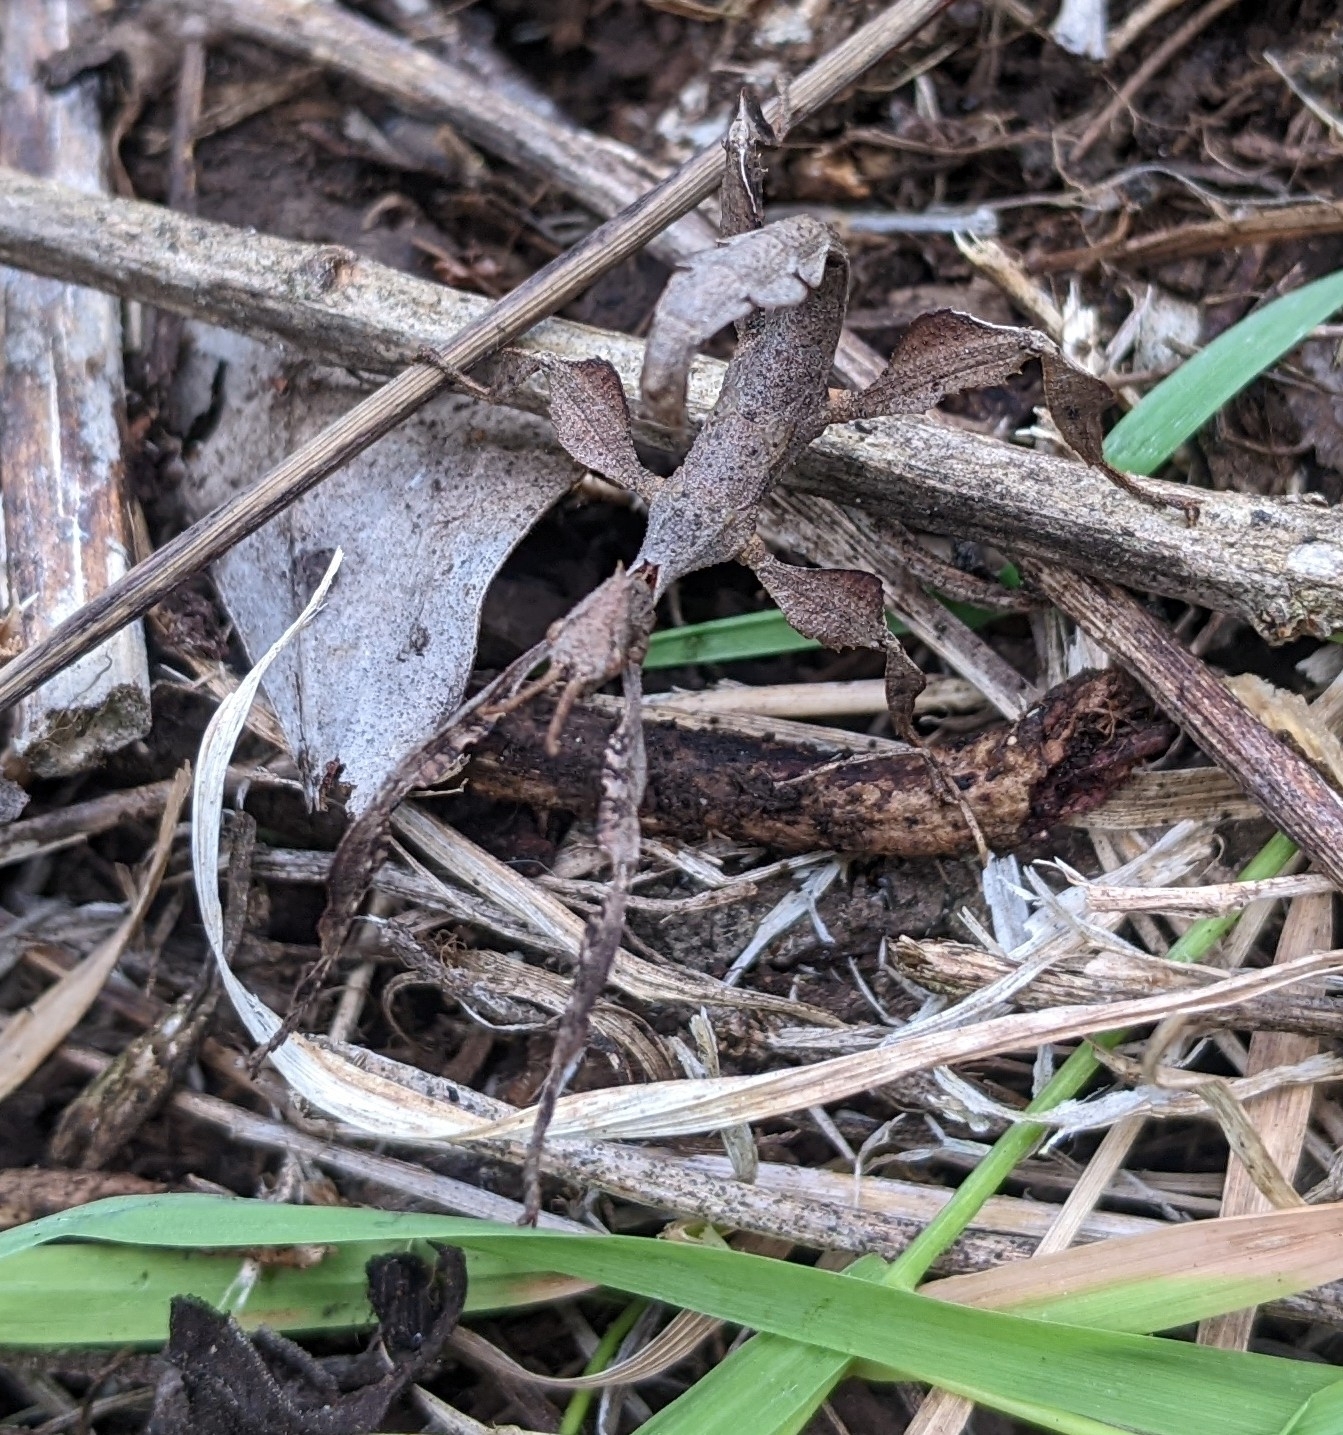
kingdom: Animalia
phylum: Arthropoda
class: Insecta
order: Phasmida
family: Phasmatidae
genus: Extatosoma
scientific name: Extatosoma tiaratum
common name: Macleay's spectre
